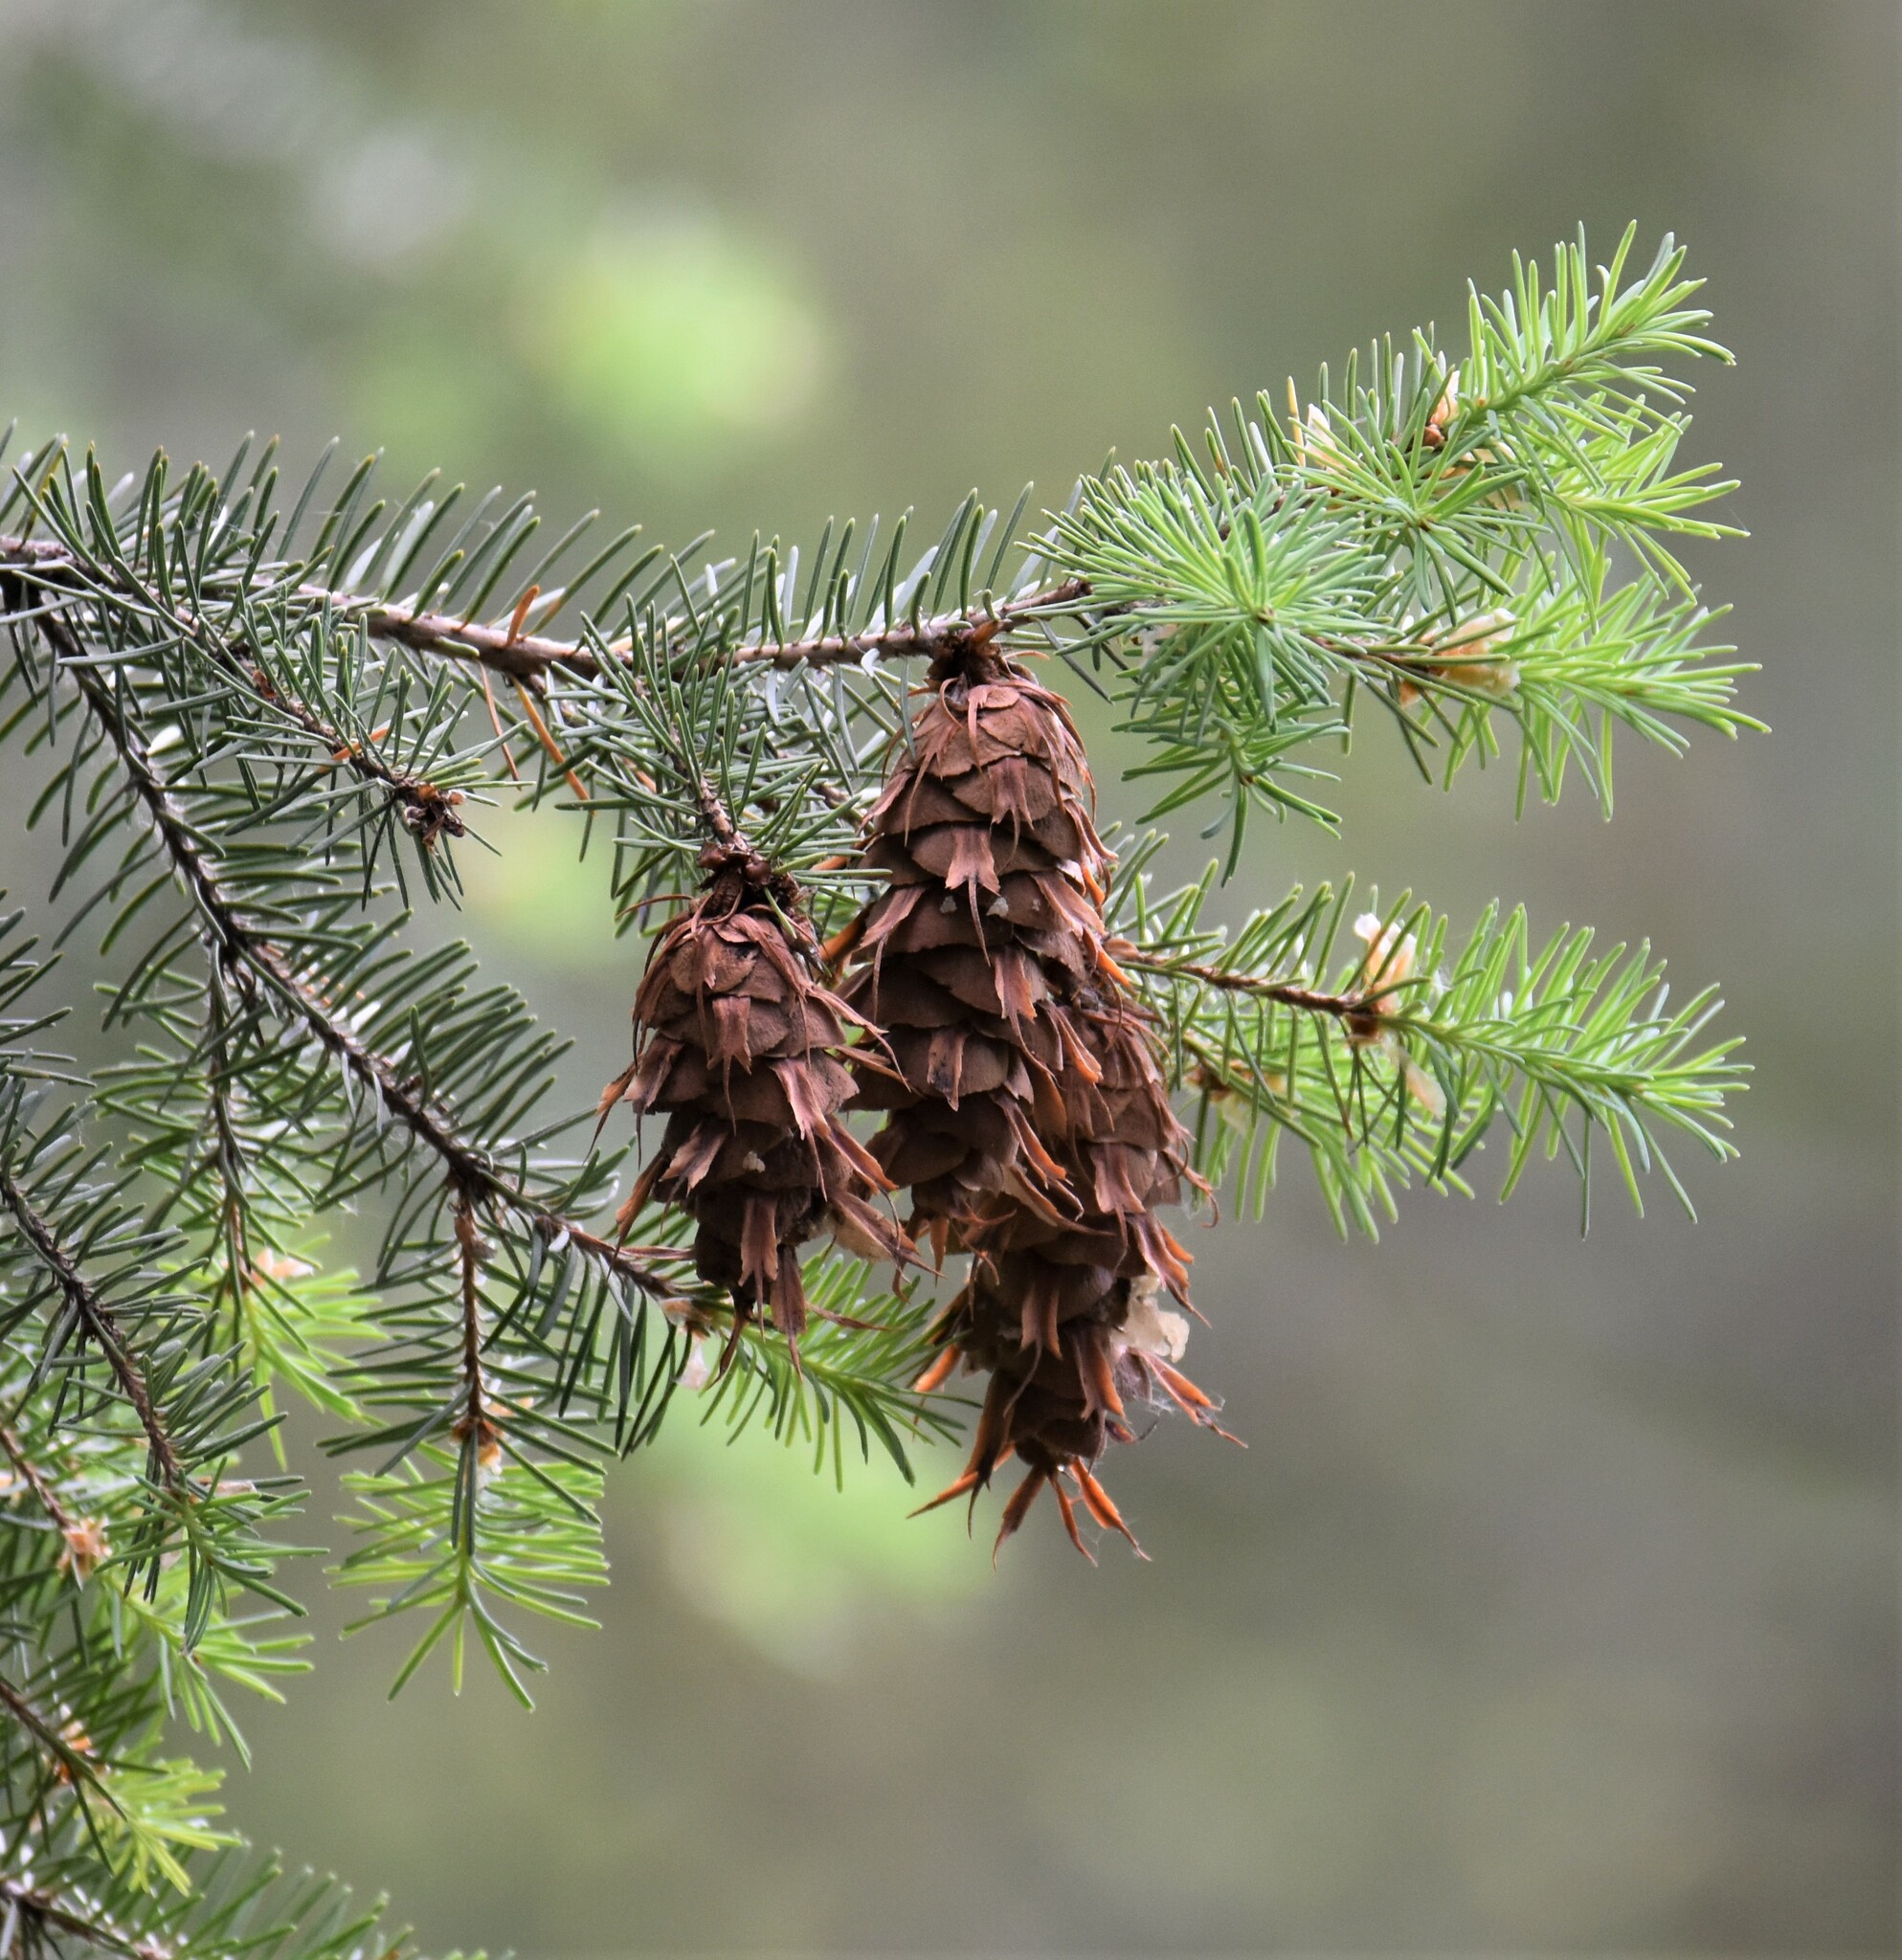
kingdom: Plantae
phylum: Tracheophyta
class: Pinopsida
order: Pinales
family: Pinaceae
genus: Pseudotsuga
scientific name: Pseudotsuga menziesii
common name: Douglas fir
